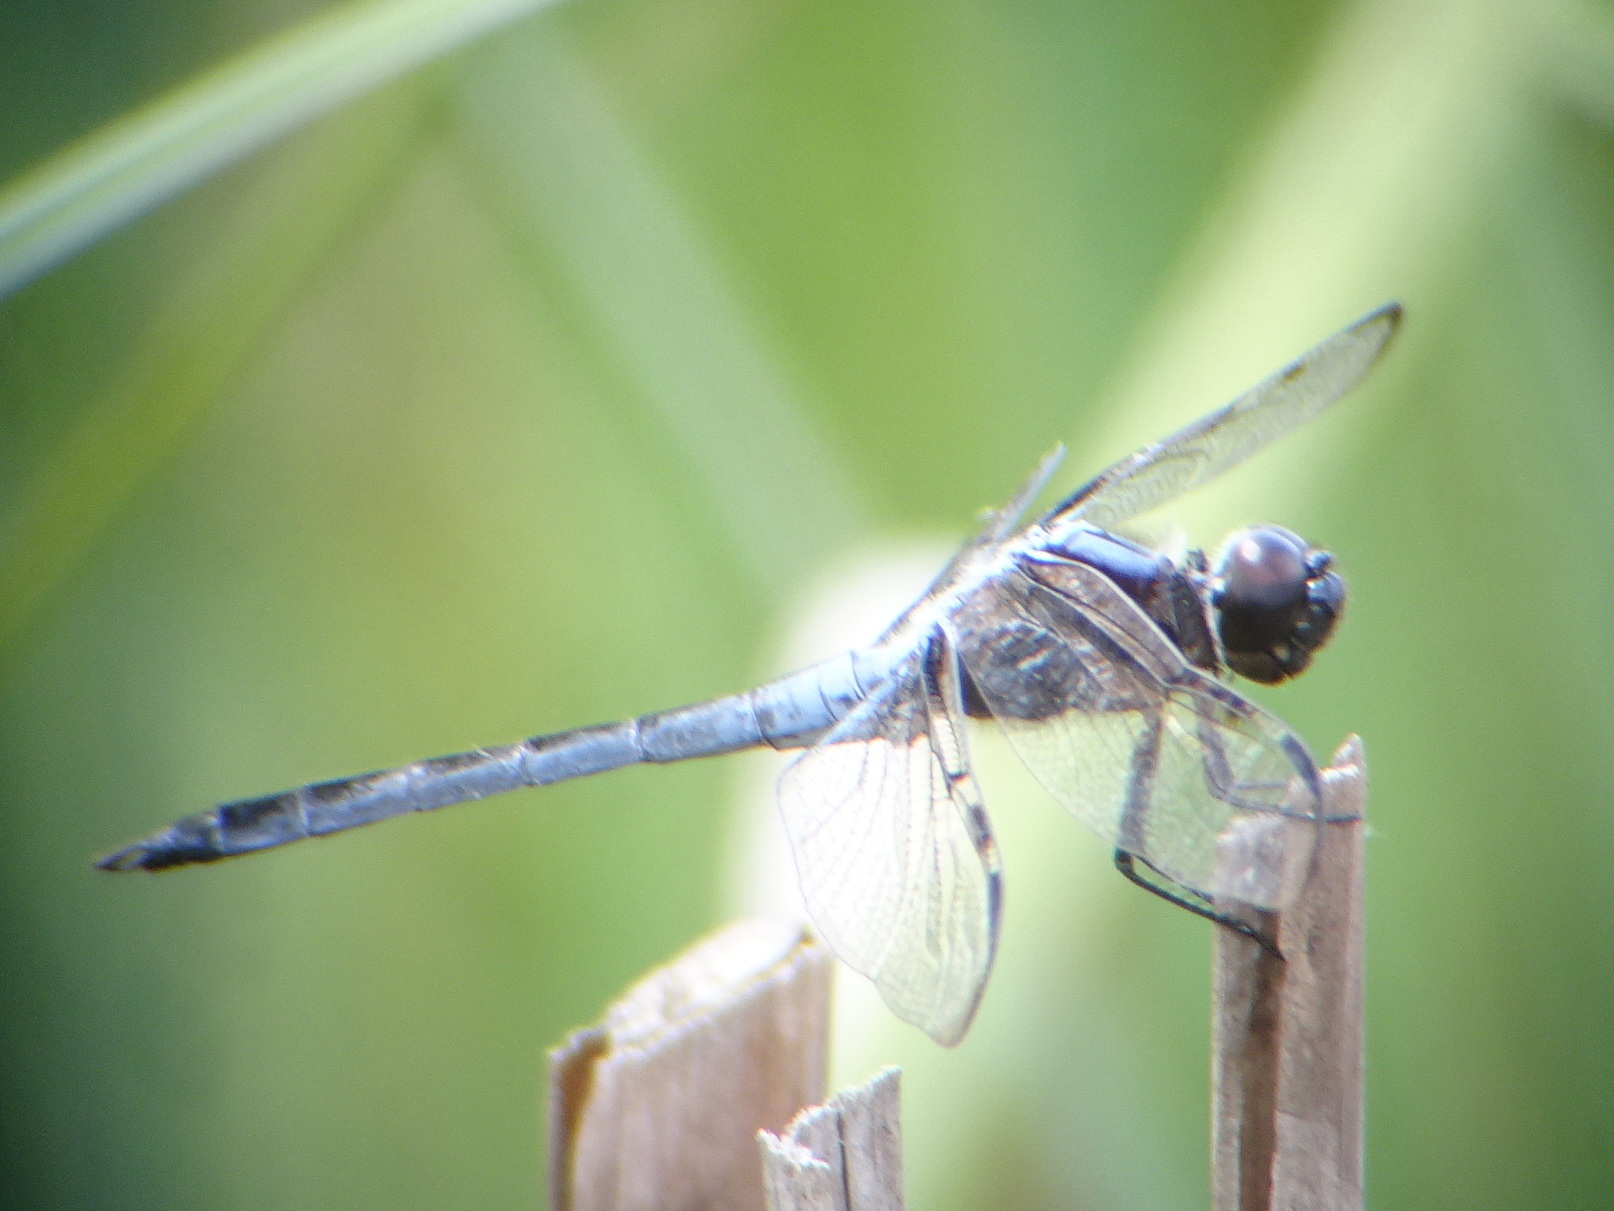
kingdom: Animalia
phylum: Arthropoda
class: Insecta
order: Odonata
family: Libellulidae
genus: Libellula
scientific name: Libellula incesta
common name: Slaty skimmer
